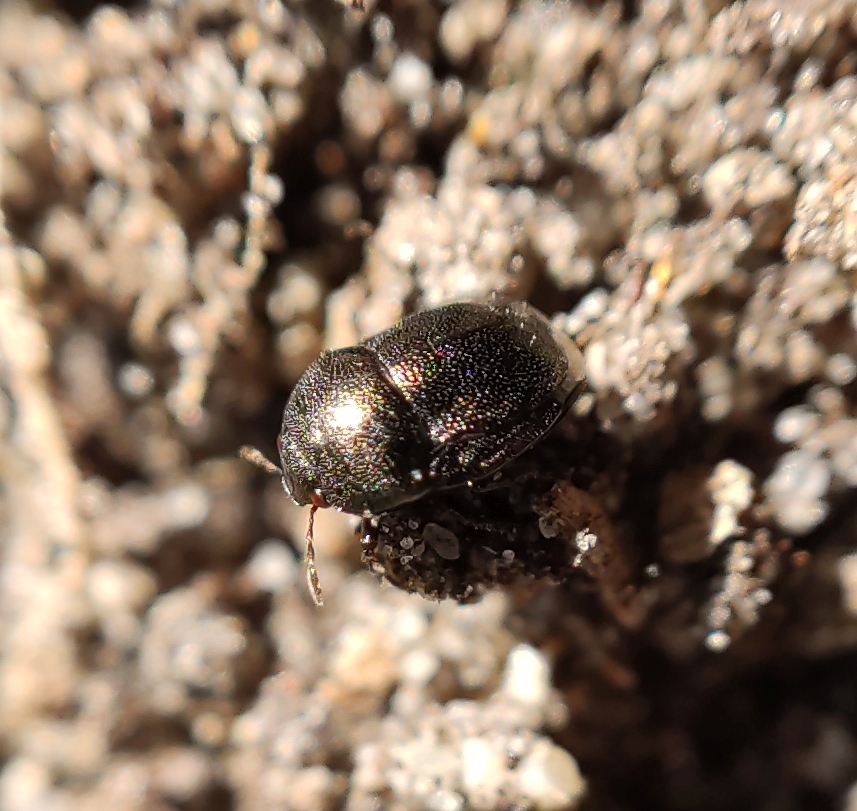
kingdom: Animalia
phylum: Arthropoda
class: Insecta
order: Hemiptera
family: Thyreocoridae
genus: Thyreocoris
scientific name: Thyreocoris scarabaeoides
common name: Negro bug
